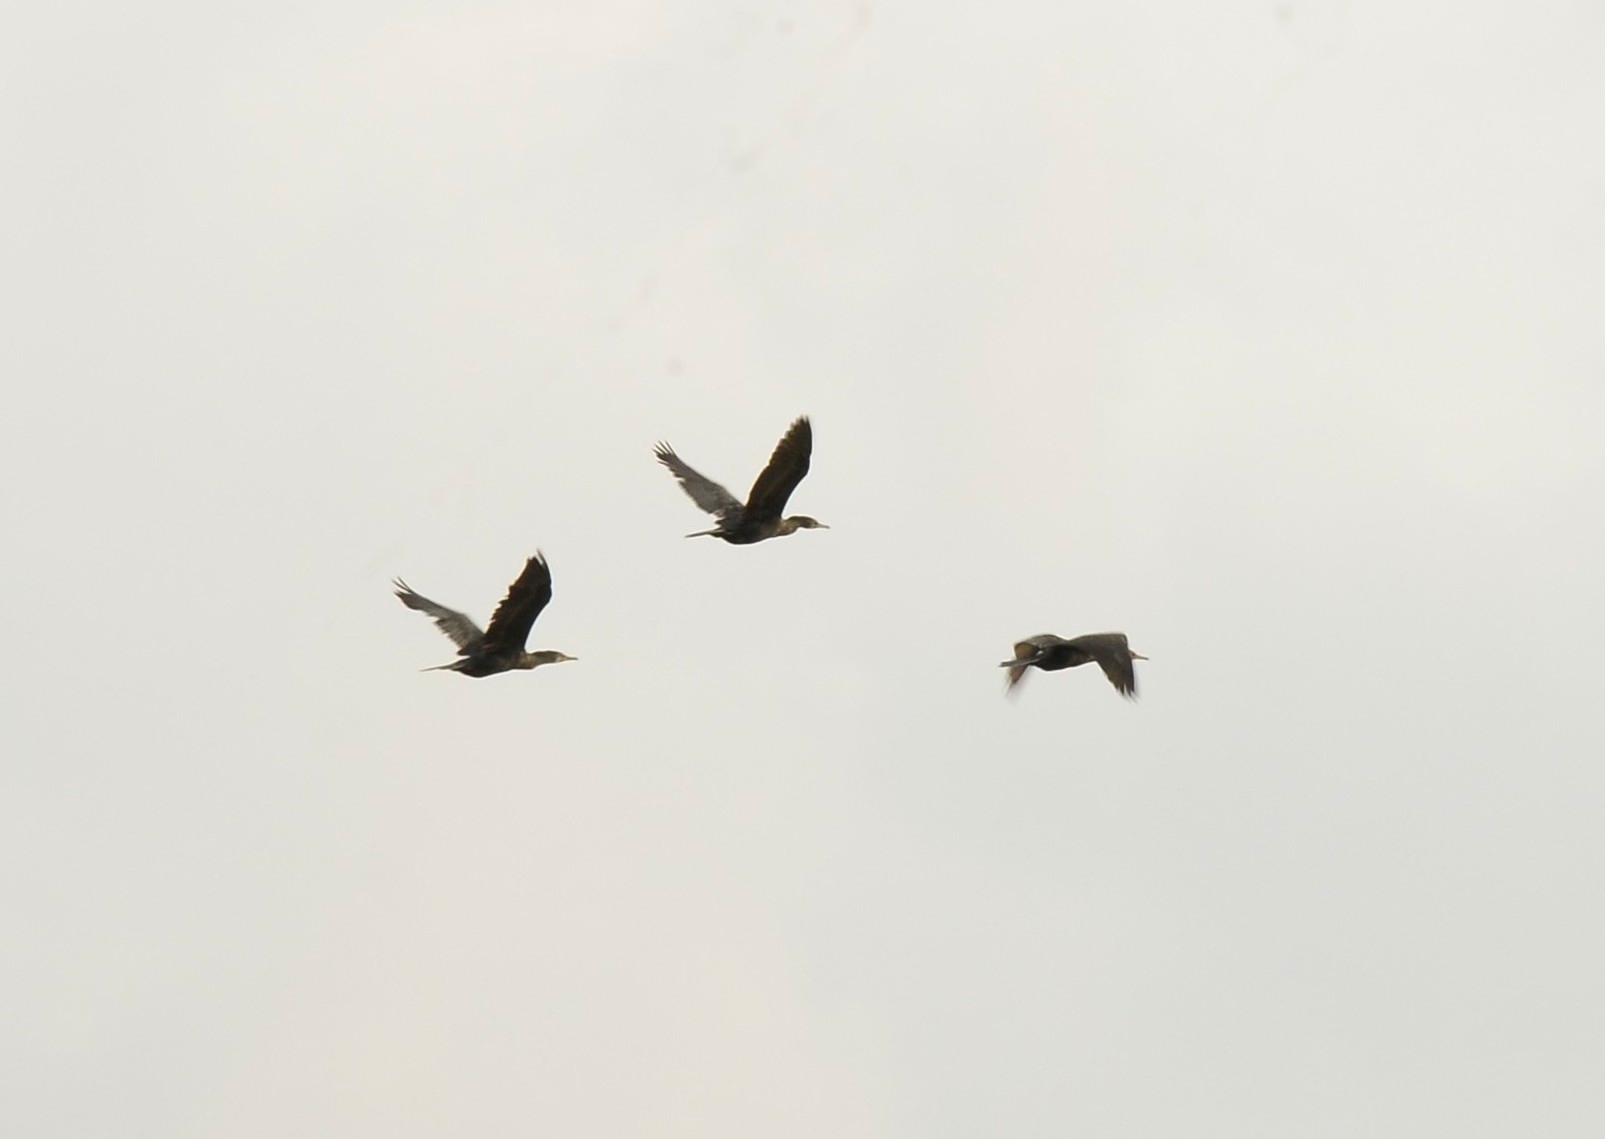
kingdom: Animalia
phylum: Chordata
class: Aves
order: Suliformes
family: Phalacrocoracidae
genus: Phalacrocorax
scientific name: Phalacrocorax fuscicollis
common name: Indian cormorant
